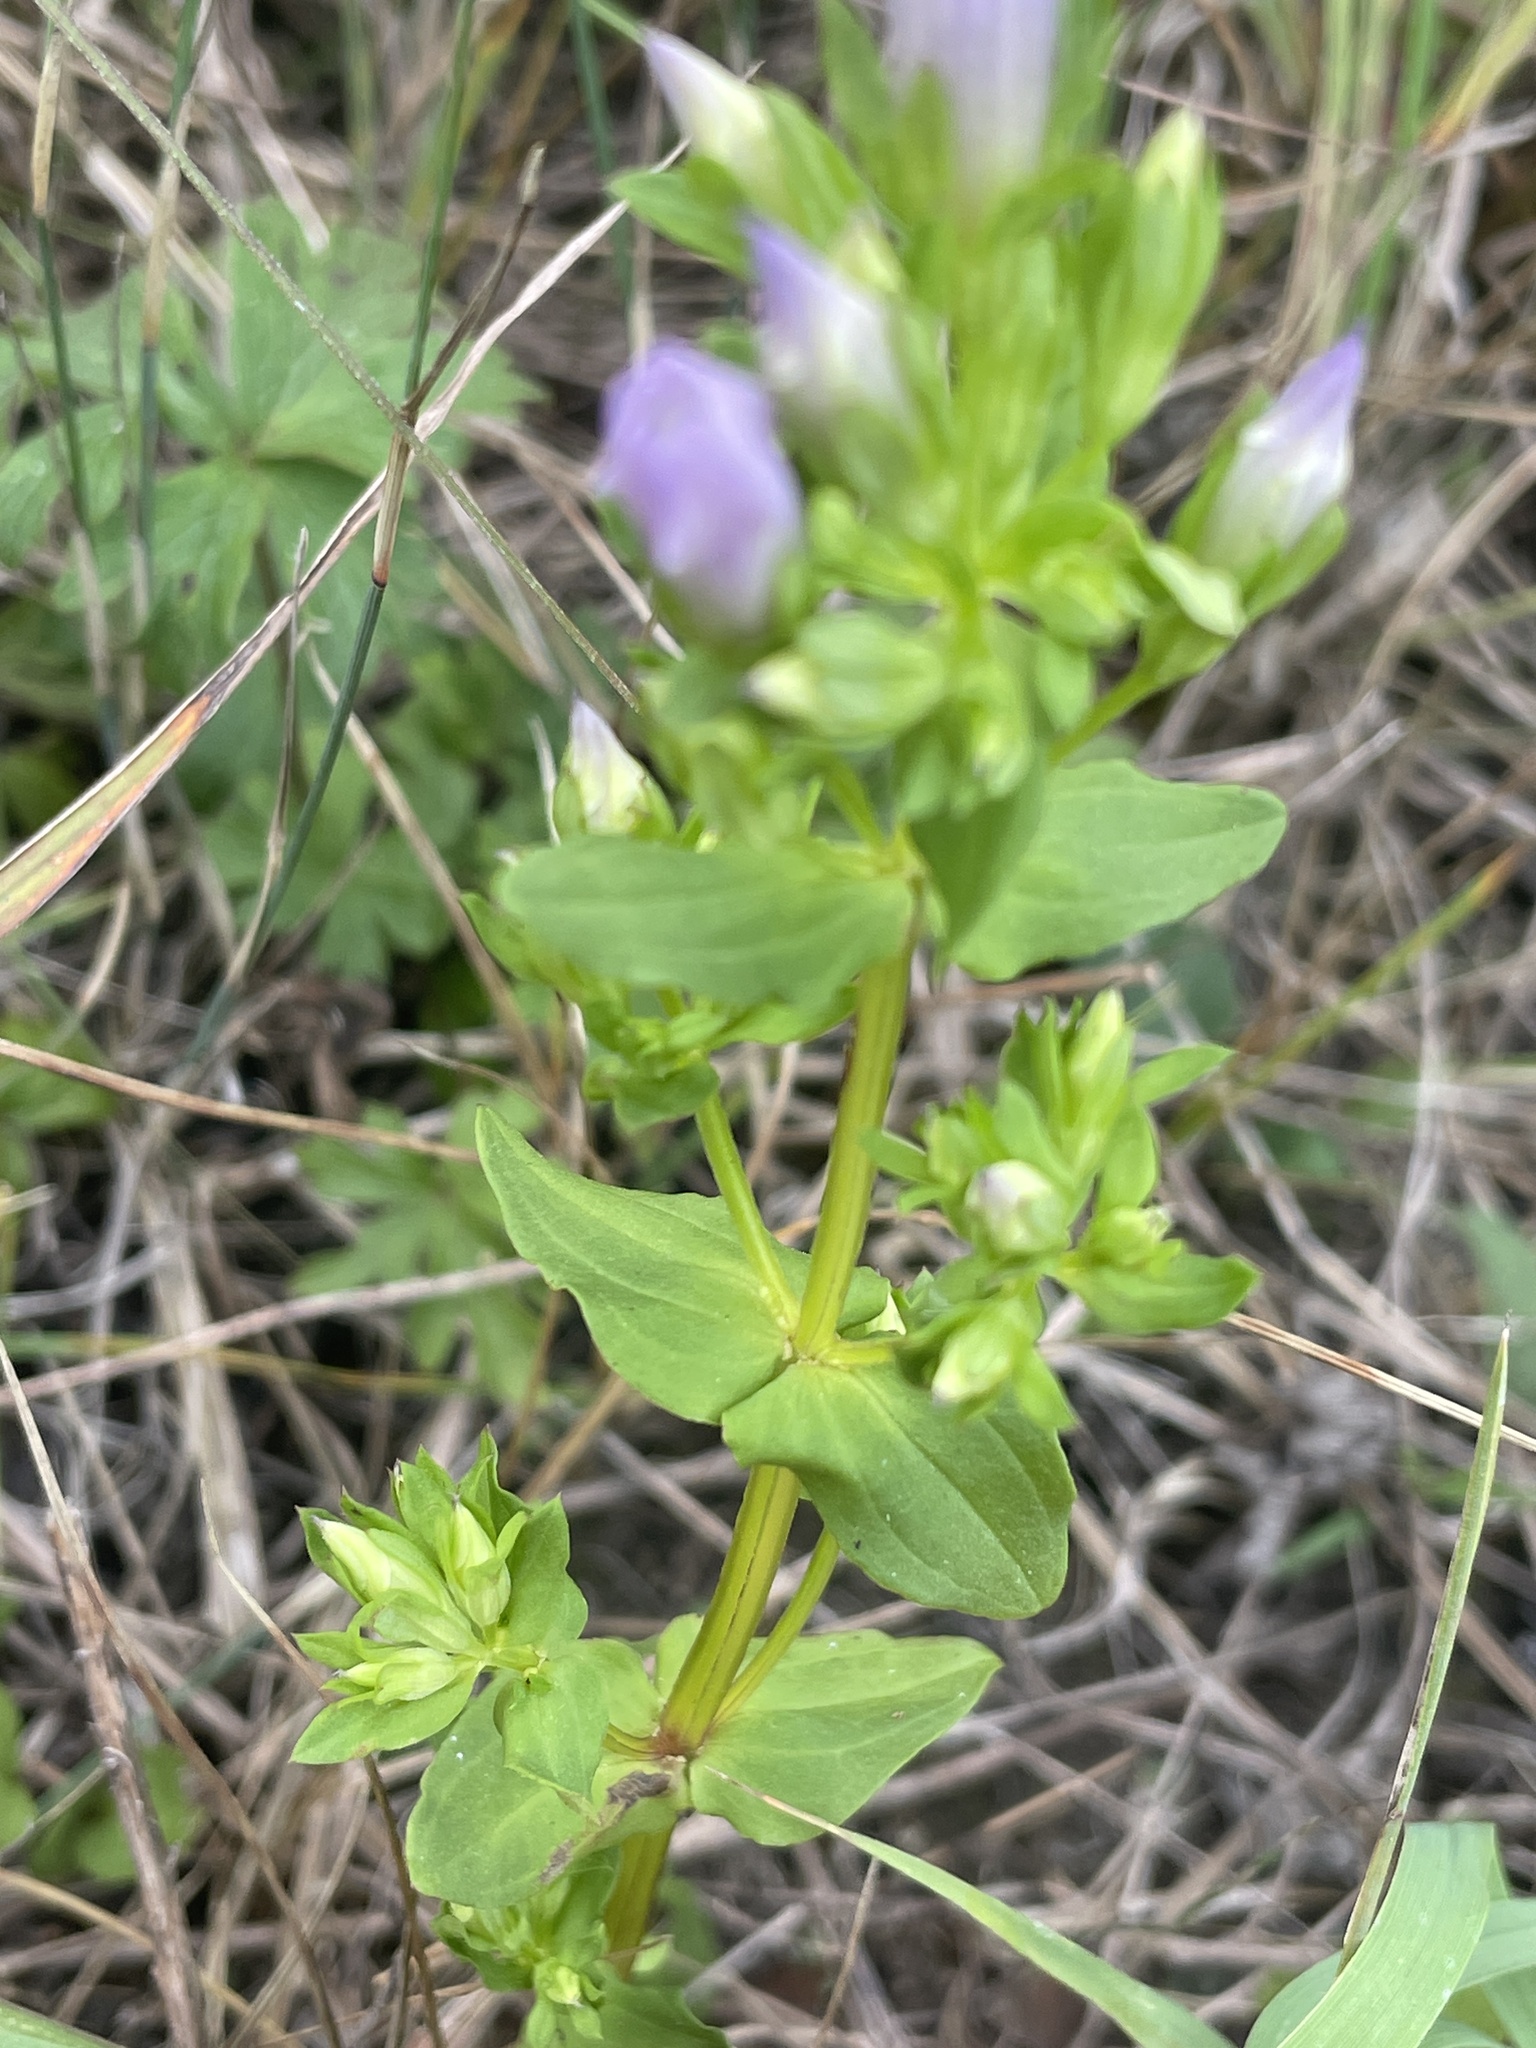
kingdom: Plantae
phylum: Tracheophyta
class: Magnoliopsida
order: Gentianales
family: Gentianaceae
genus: Gentianella
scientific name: Gentianella quinquefolia
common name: Agueweed
